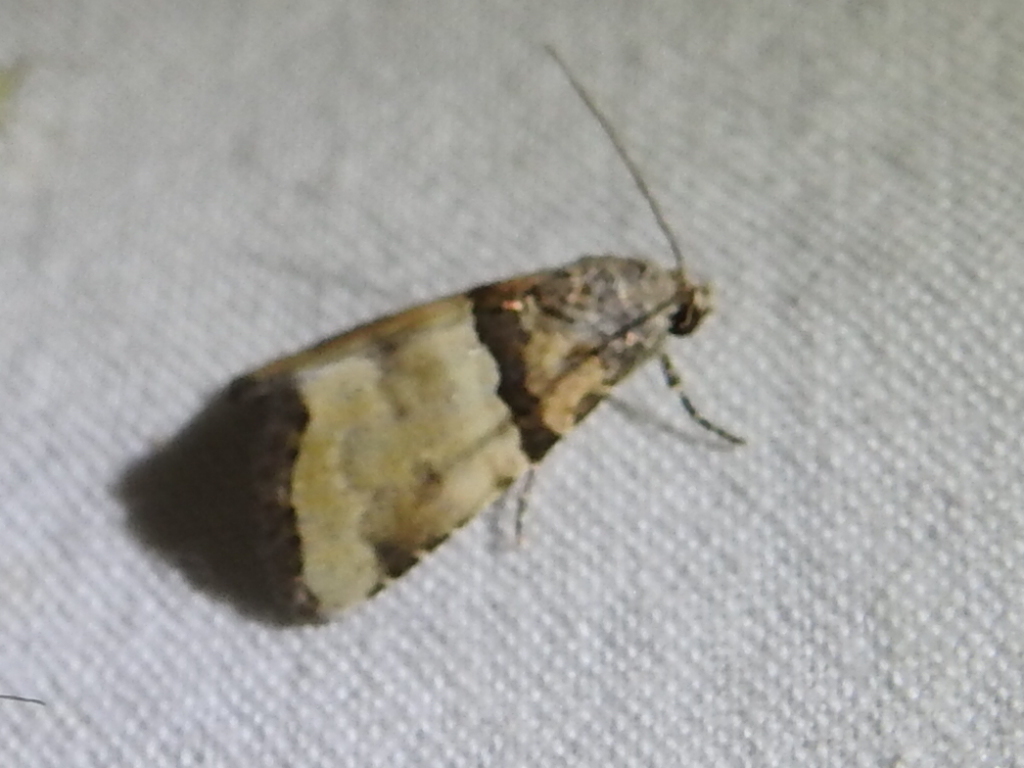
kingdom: Animalia
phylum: Arthropoda
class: Insecta
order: Lepidoptera
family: Noctuidae
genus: Cobubatha
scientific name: Cobubatha dividua
